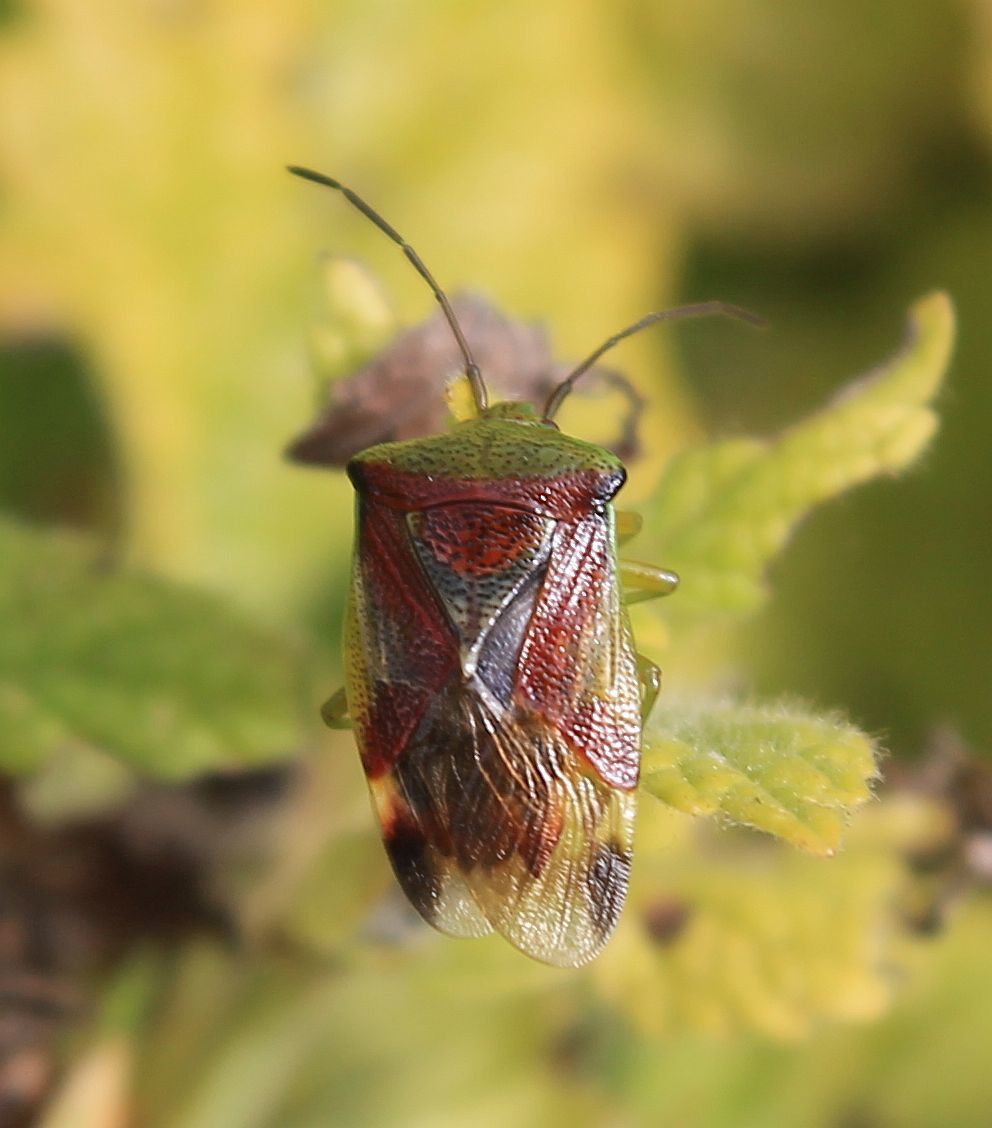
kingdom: Animalia
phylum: Arthropoda
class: Insecta
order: Hemiptera
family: Acanthosomatidae
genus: Elasmostethus
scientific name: Elasmostethus interstinctus
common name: Birch shieldbug
